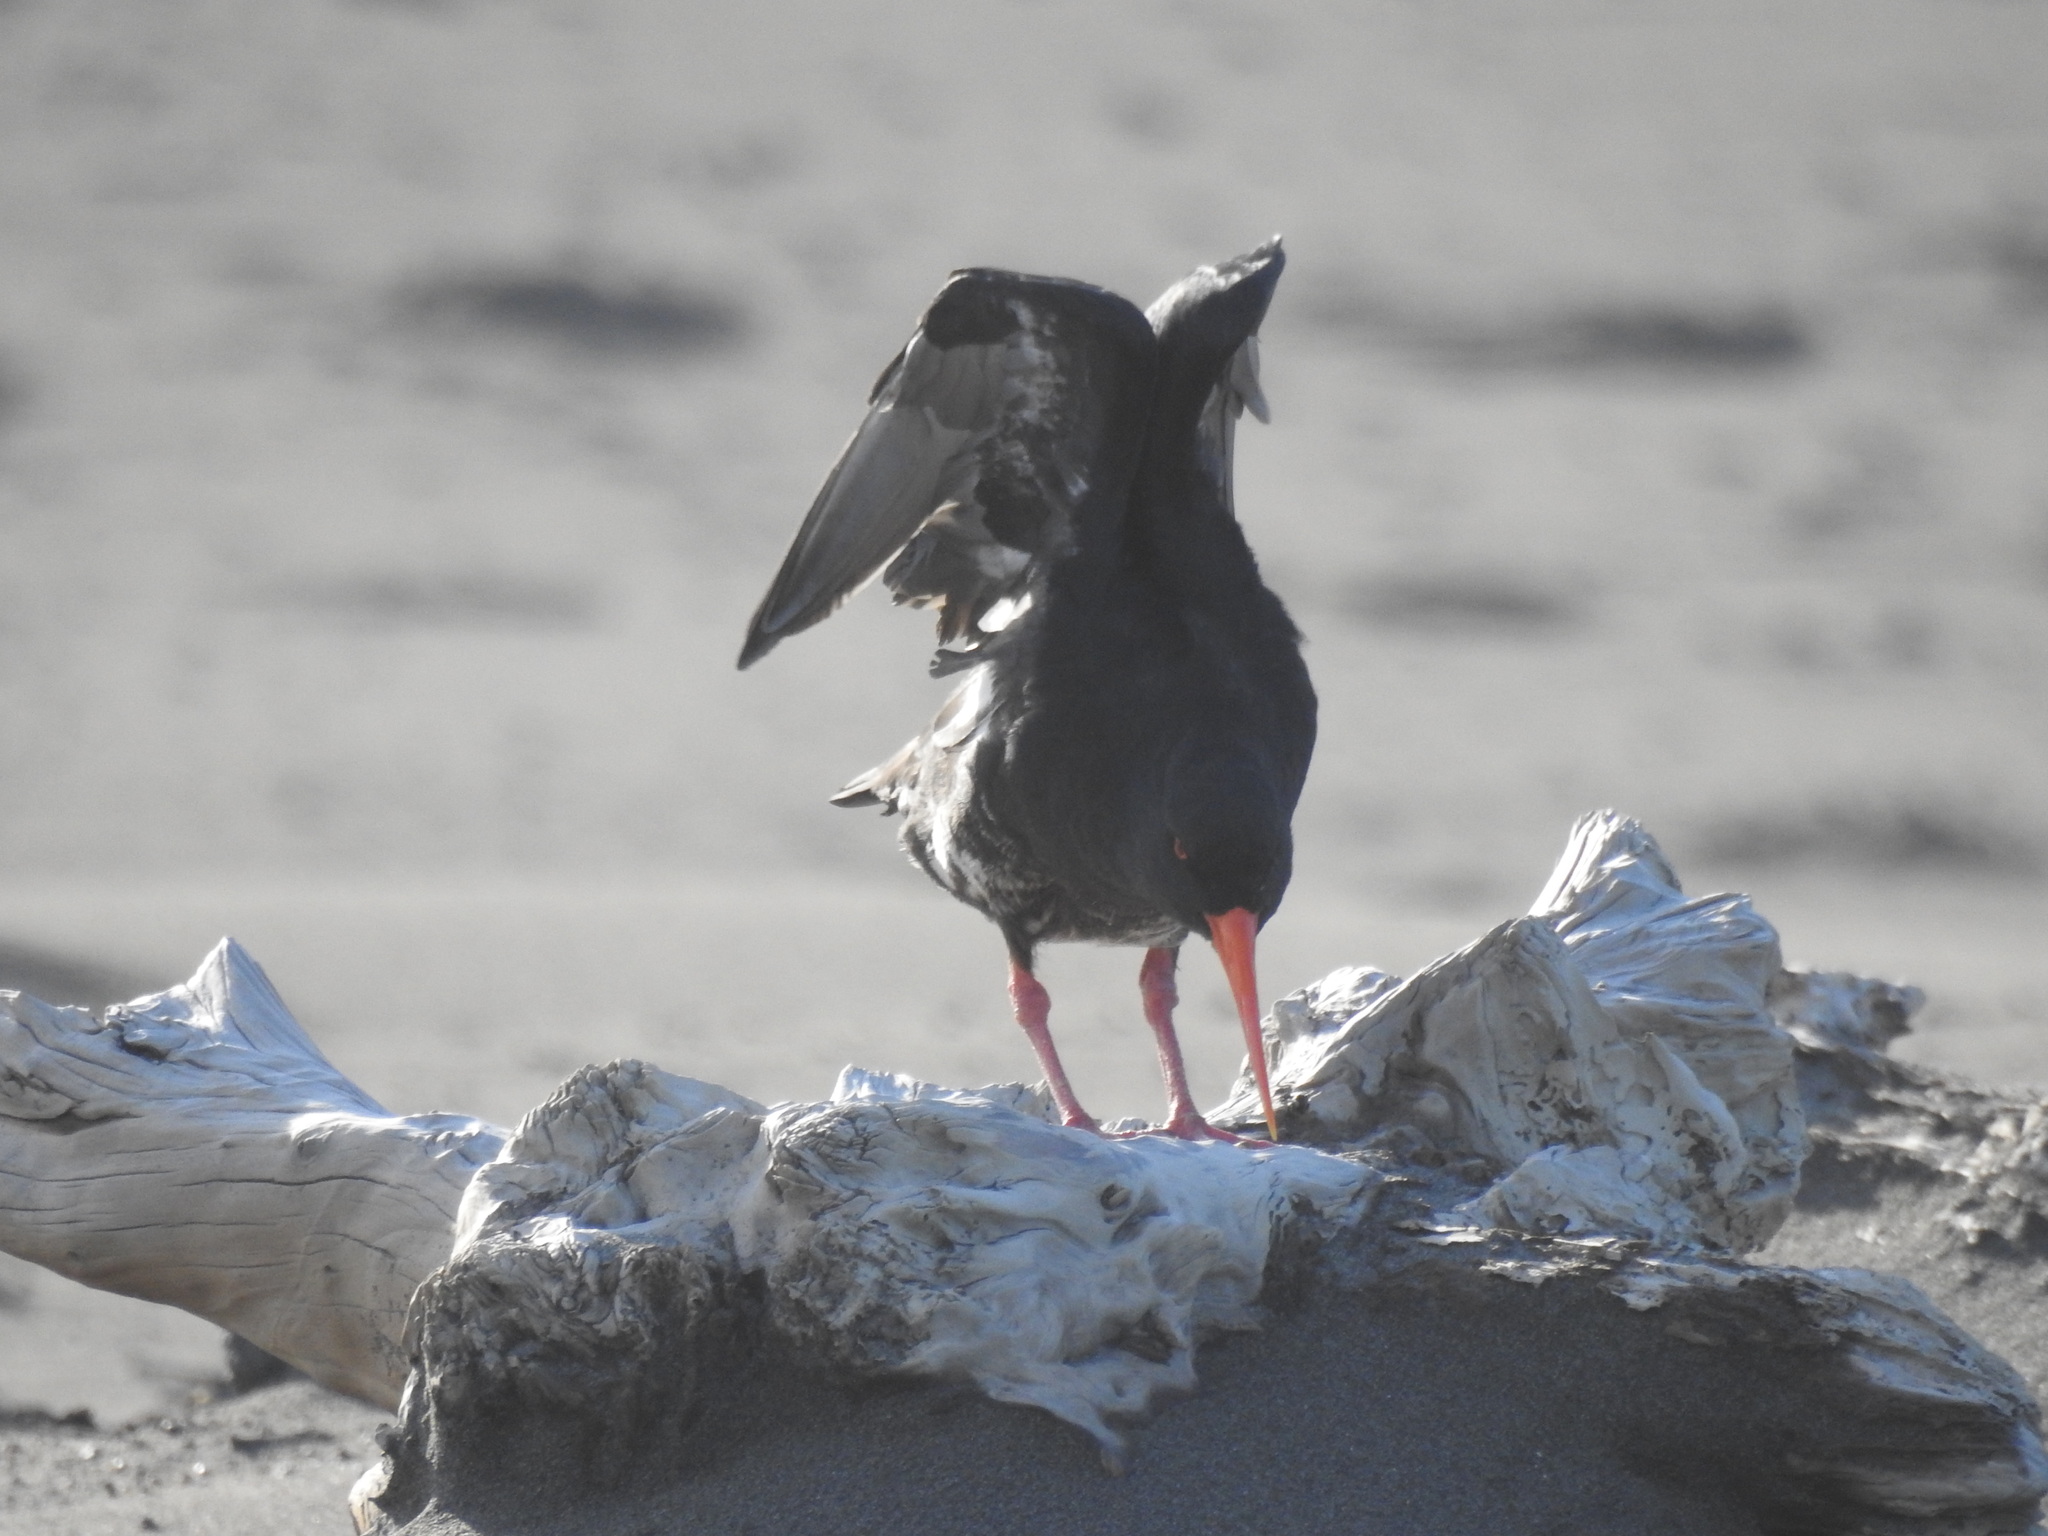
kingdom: Animalia
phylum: Chordata
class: Aves
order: Charadriiformes
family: Haematopodidae
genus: Haematopus
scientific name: Haematopus unicolor
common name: Variable oystercatcher
